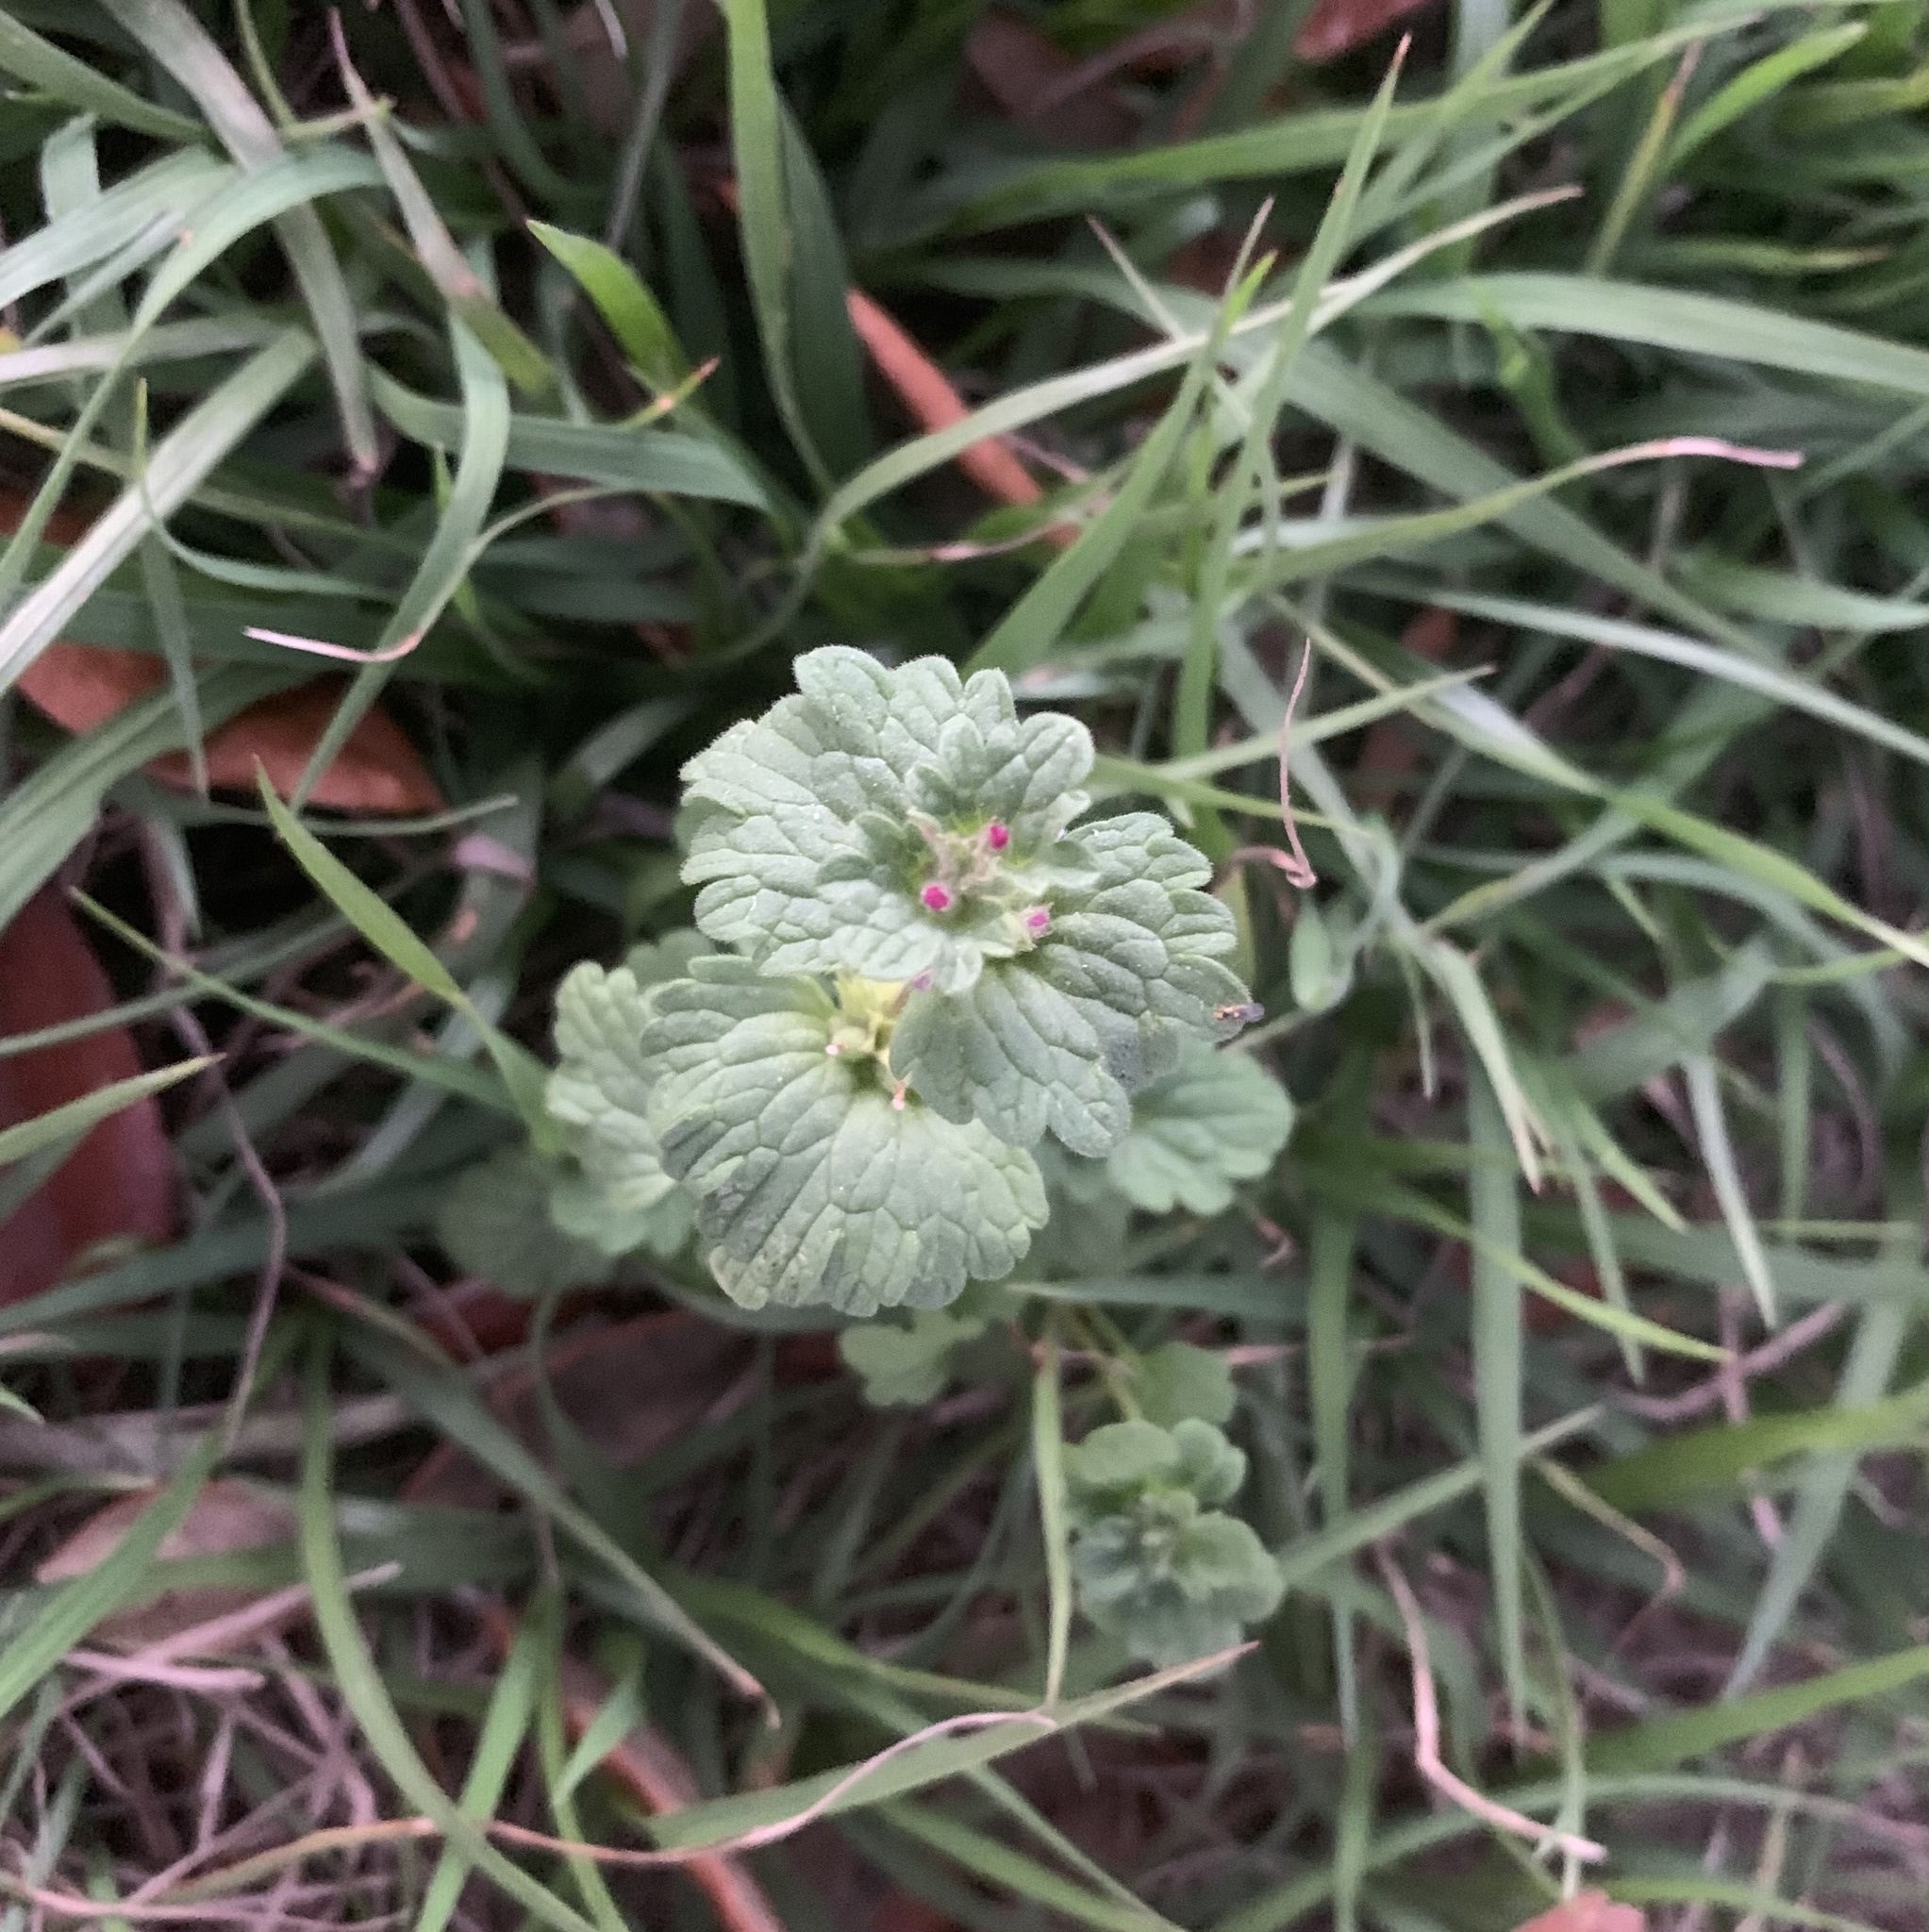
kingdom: Plantae
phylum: Tracheophyta
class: Magnoliopsida
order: Lamiales
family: Lamiaceae
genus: Lamium
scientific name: Lamium amplexicaule
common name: Henbit dead-nettle
